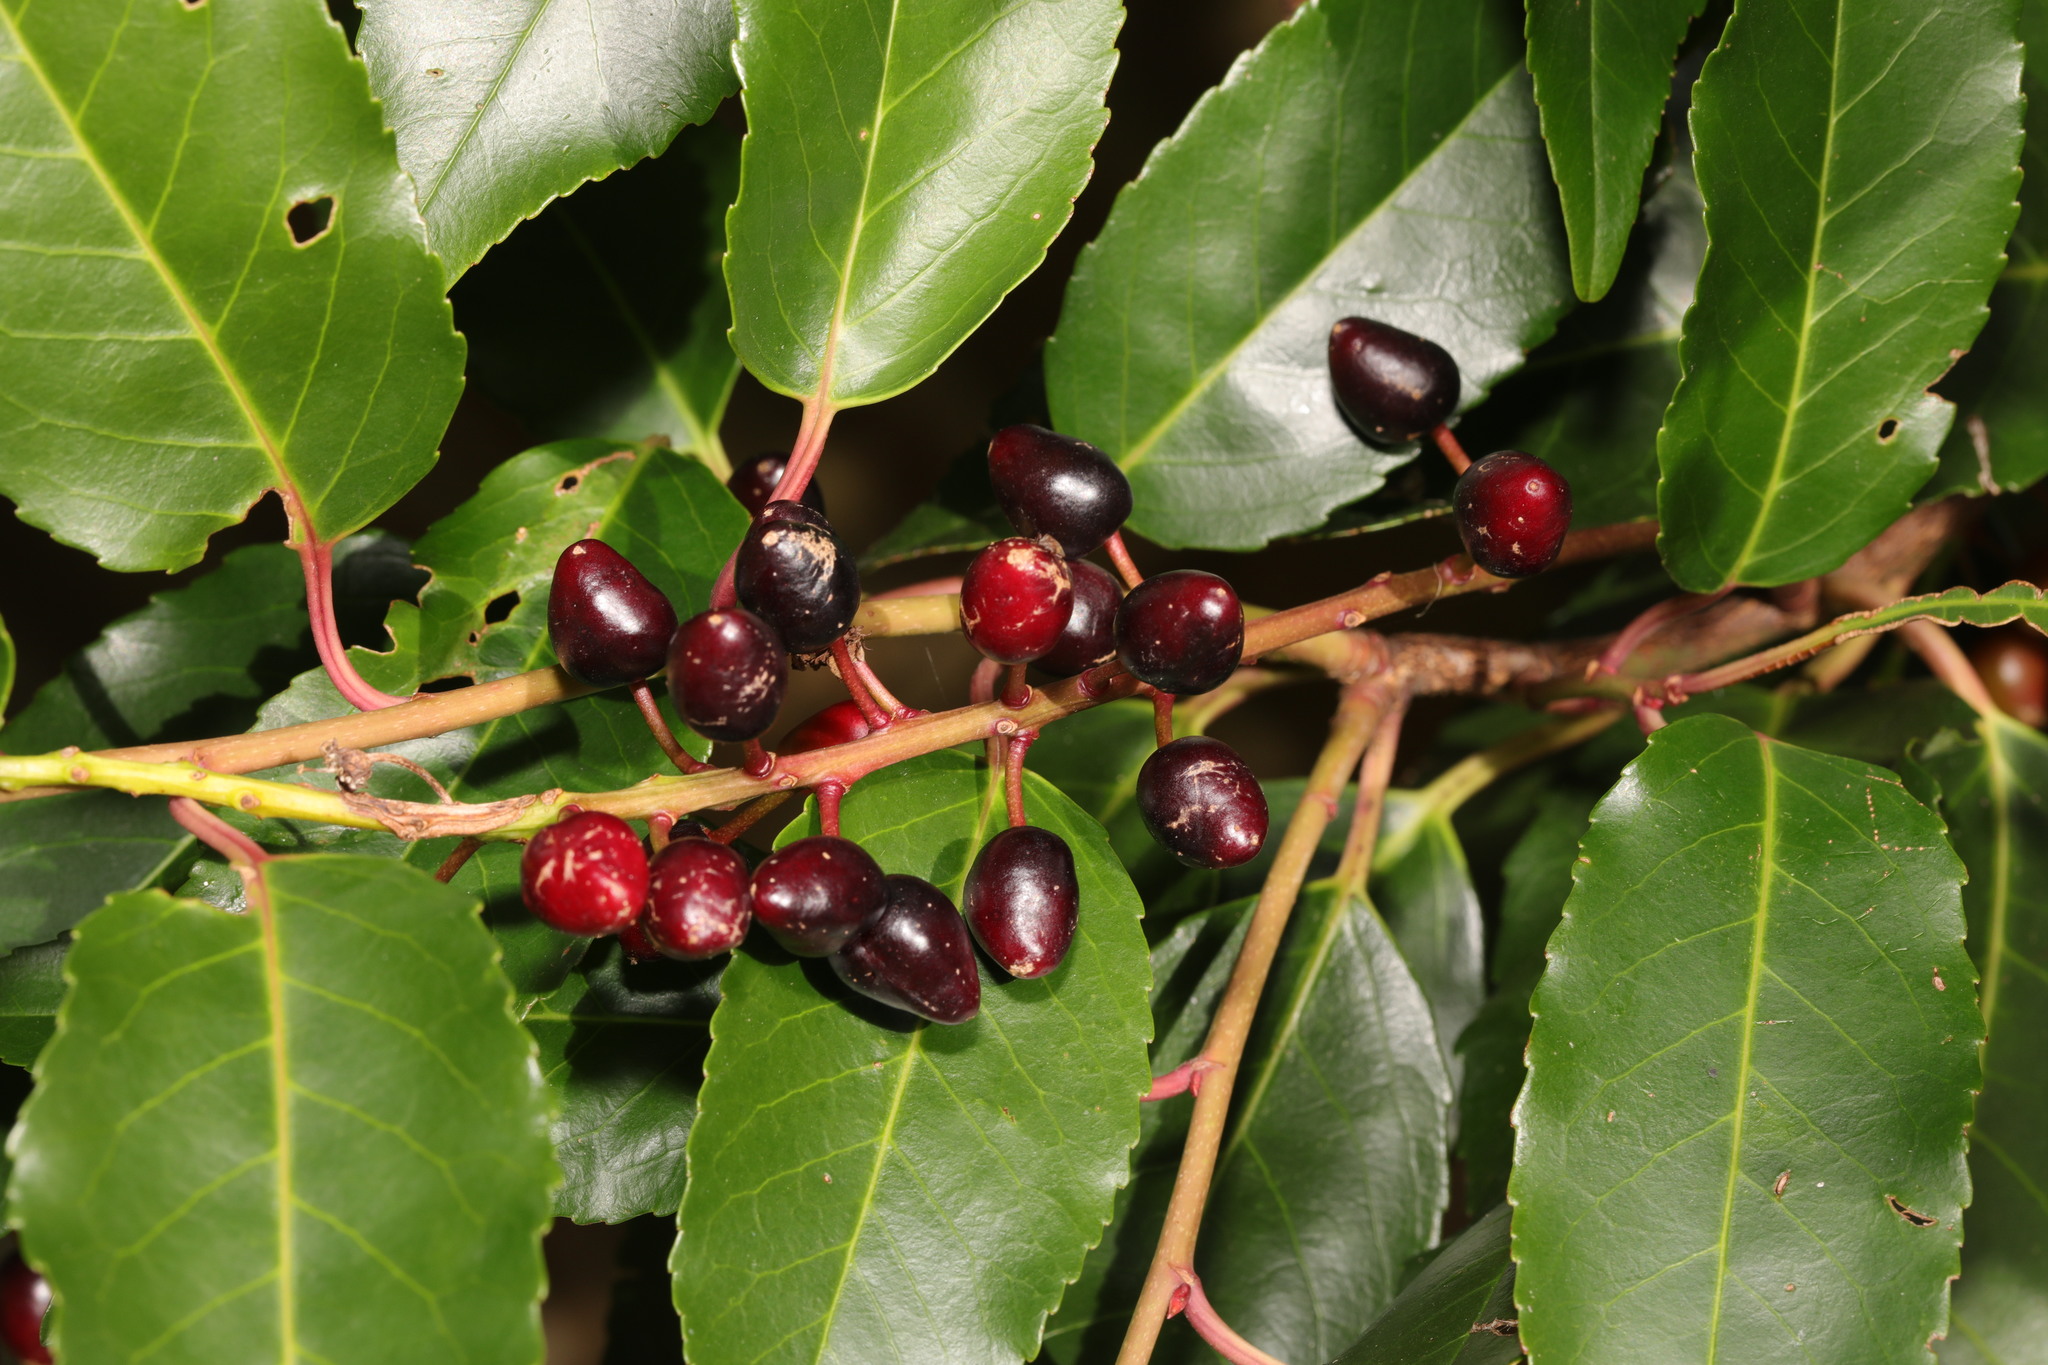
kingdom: Plantae
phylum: Tracheophyta
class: Magnoliopsida
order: Rosales
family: Rosaceae
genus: Prunus
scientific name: Prunus lusitanica
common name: Portugal laurel
